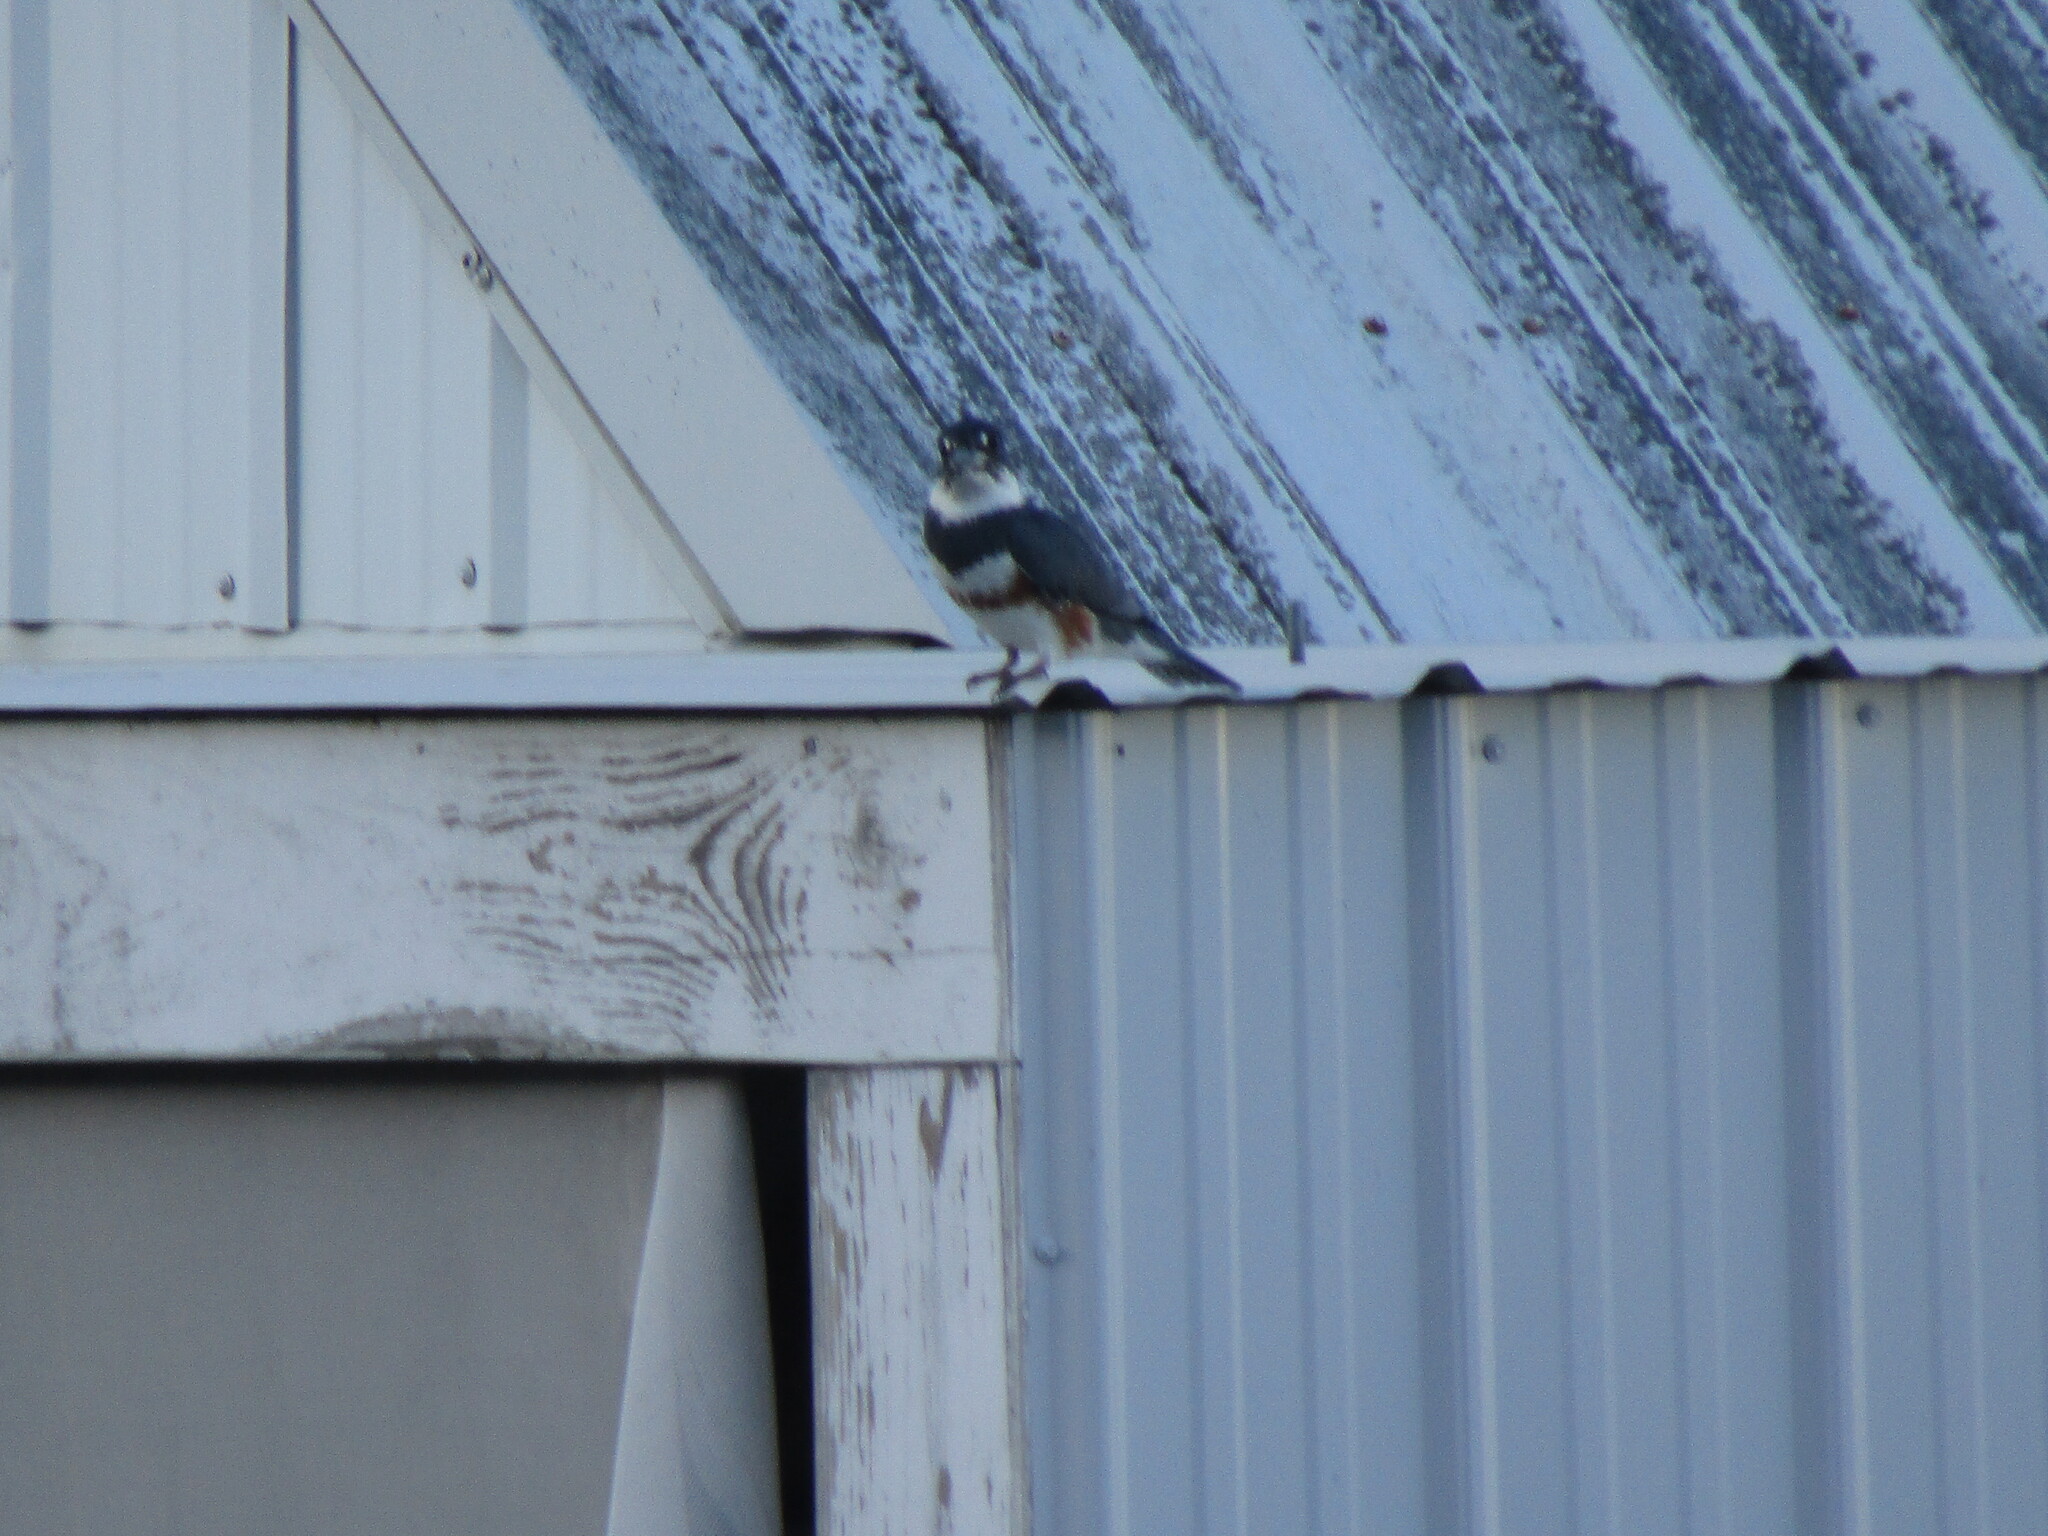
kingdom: Animalia
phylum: Chordata
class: Aves
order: Coraciiformes
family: Alcedinidae
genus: Megaceryle
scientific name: Megaceryle alcyon
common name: Belted kingfisher
